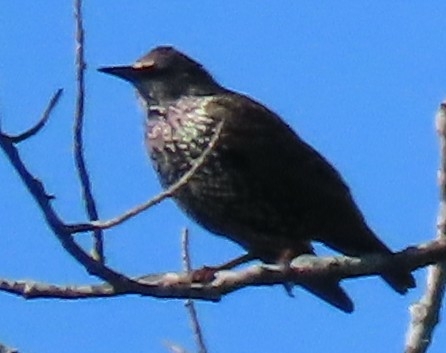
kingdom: Animalia
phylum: Chordata
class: Aves
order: Passeriformes
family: Sturnidae
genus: Sturnus
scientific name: Sturnus vulgaris
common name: Common starling
